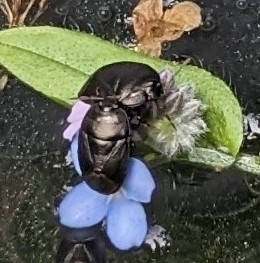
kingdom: Animalia
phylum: Arthropoda
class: Insecta
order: Hemiptera
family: Cydnidae
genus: Sehirus
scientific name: Sehirus luctuosus
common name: Forget-me-not shieldbug
